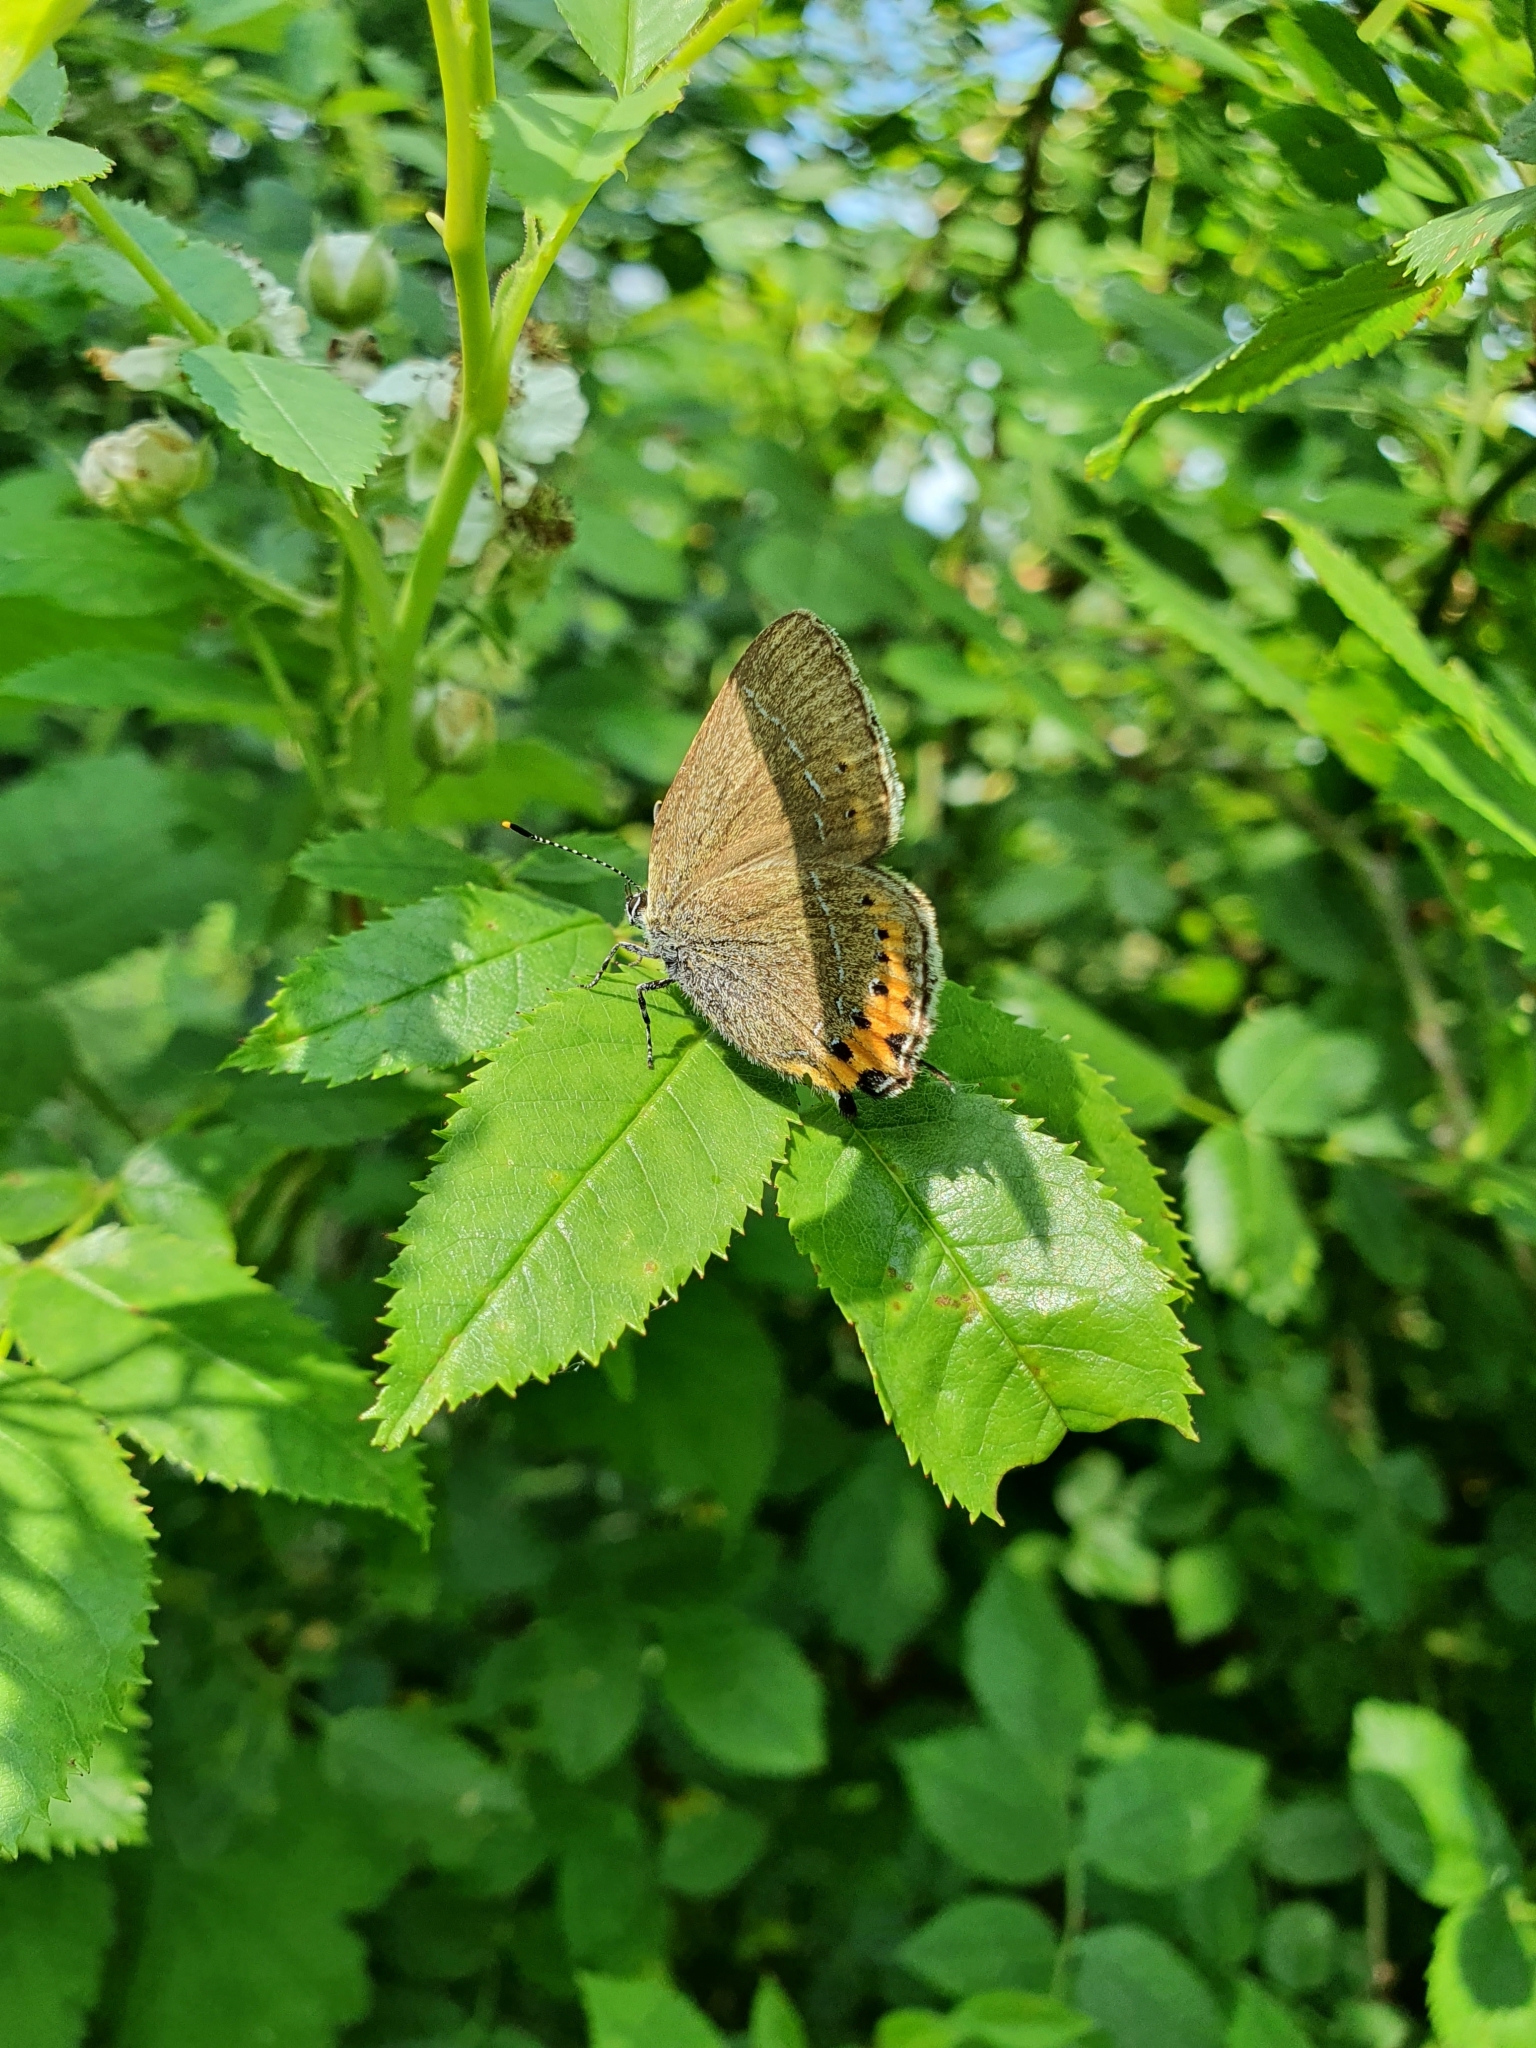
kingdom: Animalia
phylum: Arthropoda
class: Insecta
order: Lepidoptera
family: Lycaenidae
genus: Fixsenia
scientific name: Fixsenia pruni
